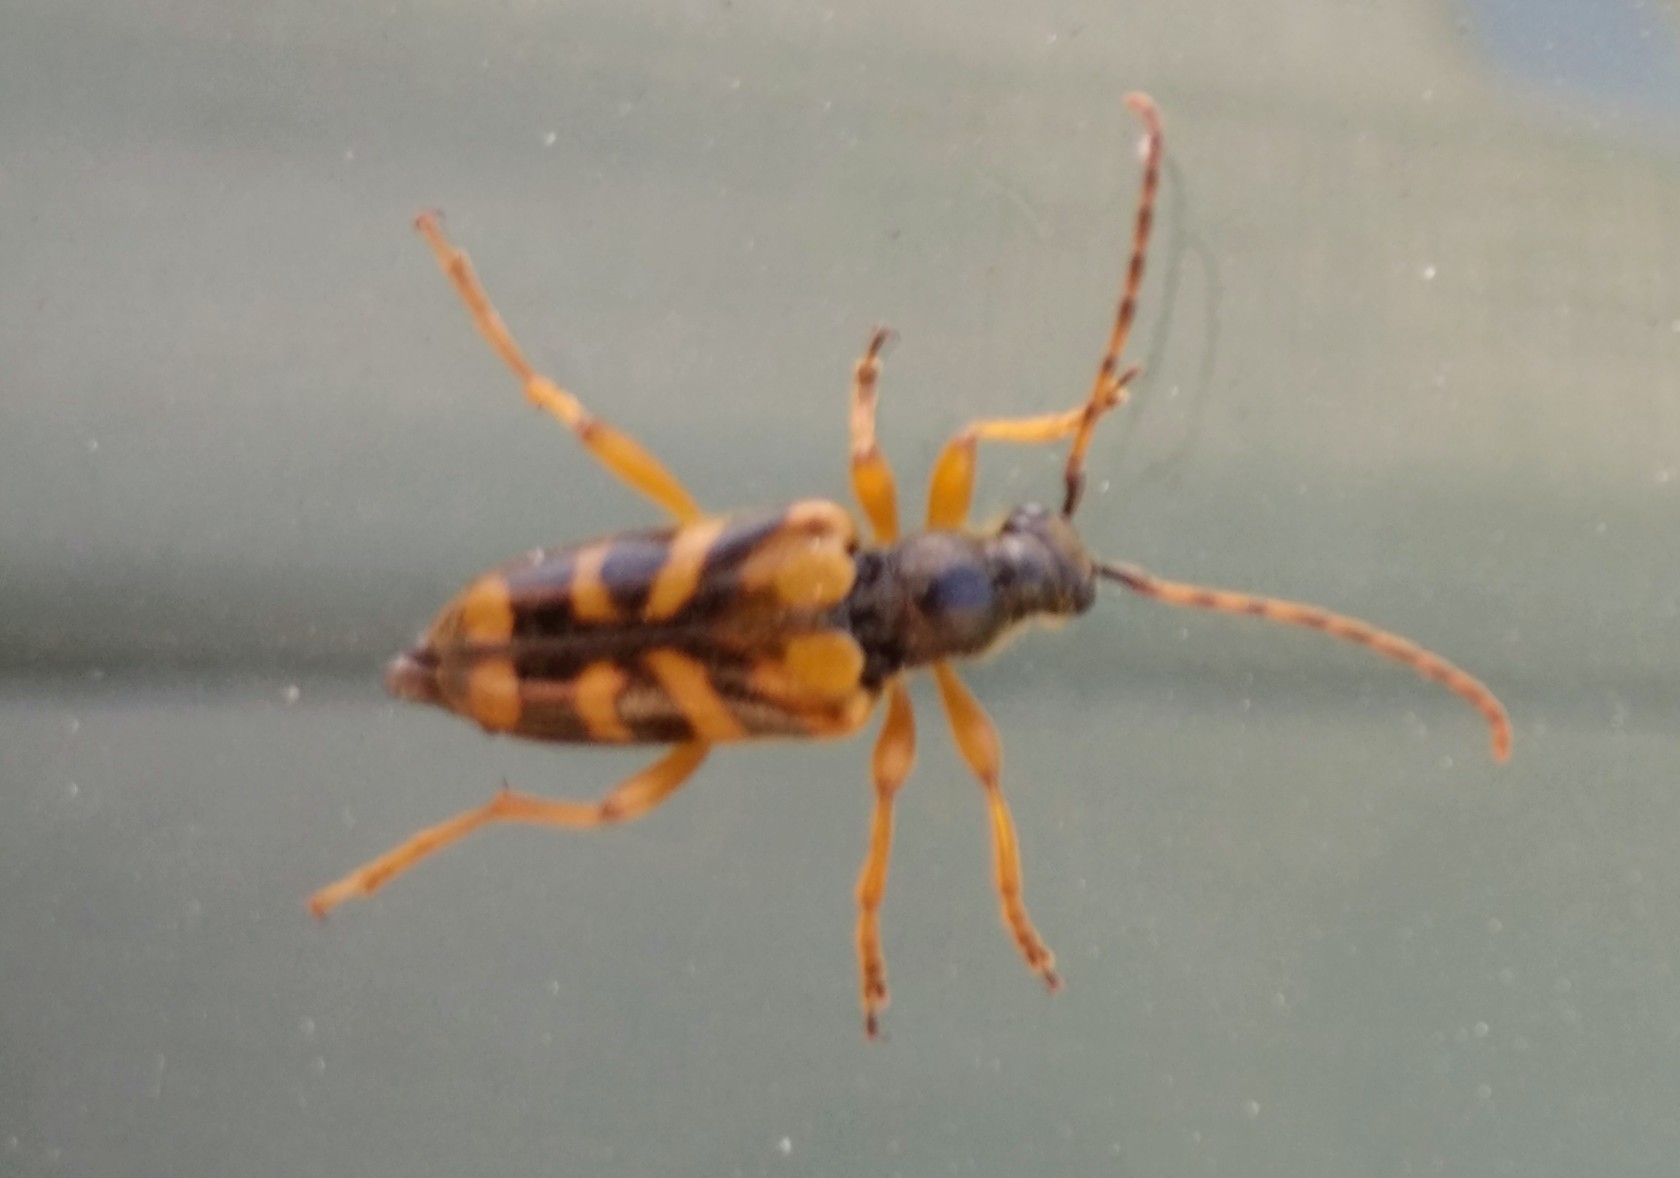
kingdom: Animalia
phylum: Arthropoda
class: Insecta
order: Coleoptera
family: Cerambycidae
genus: Xestoleptura
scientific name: Xestoleptura crassipes
